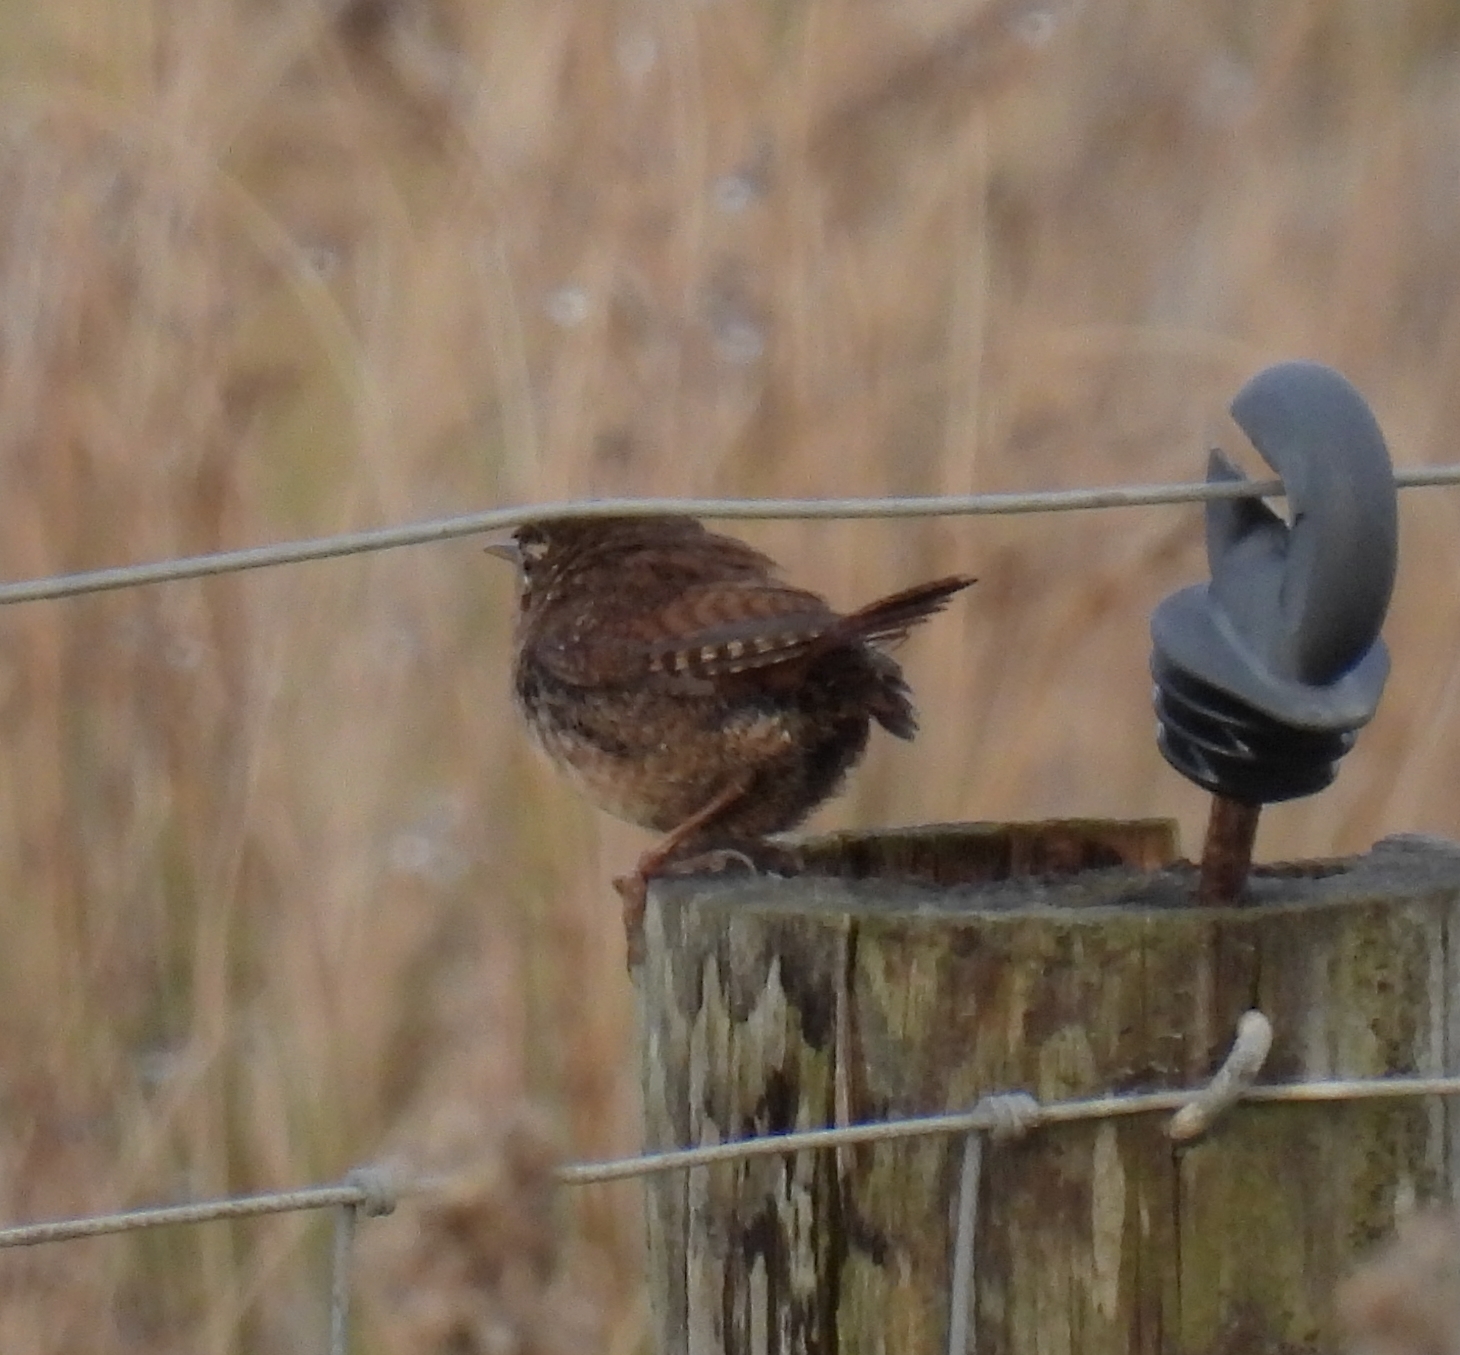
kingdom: Animalia
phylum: Chordata
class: Aves
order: Passeriformes
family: Troglodytidae
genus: Troglodytes
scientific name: Troglodytes troglodytes
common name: Eurasian wren
